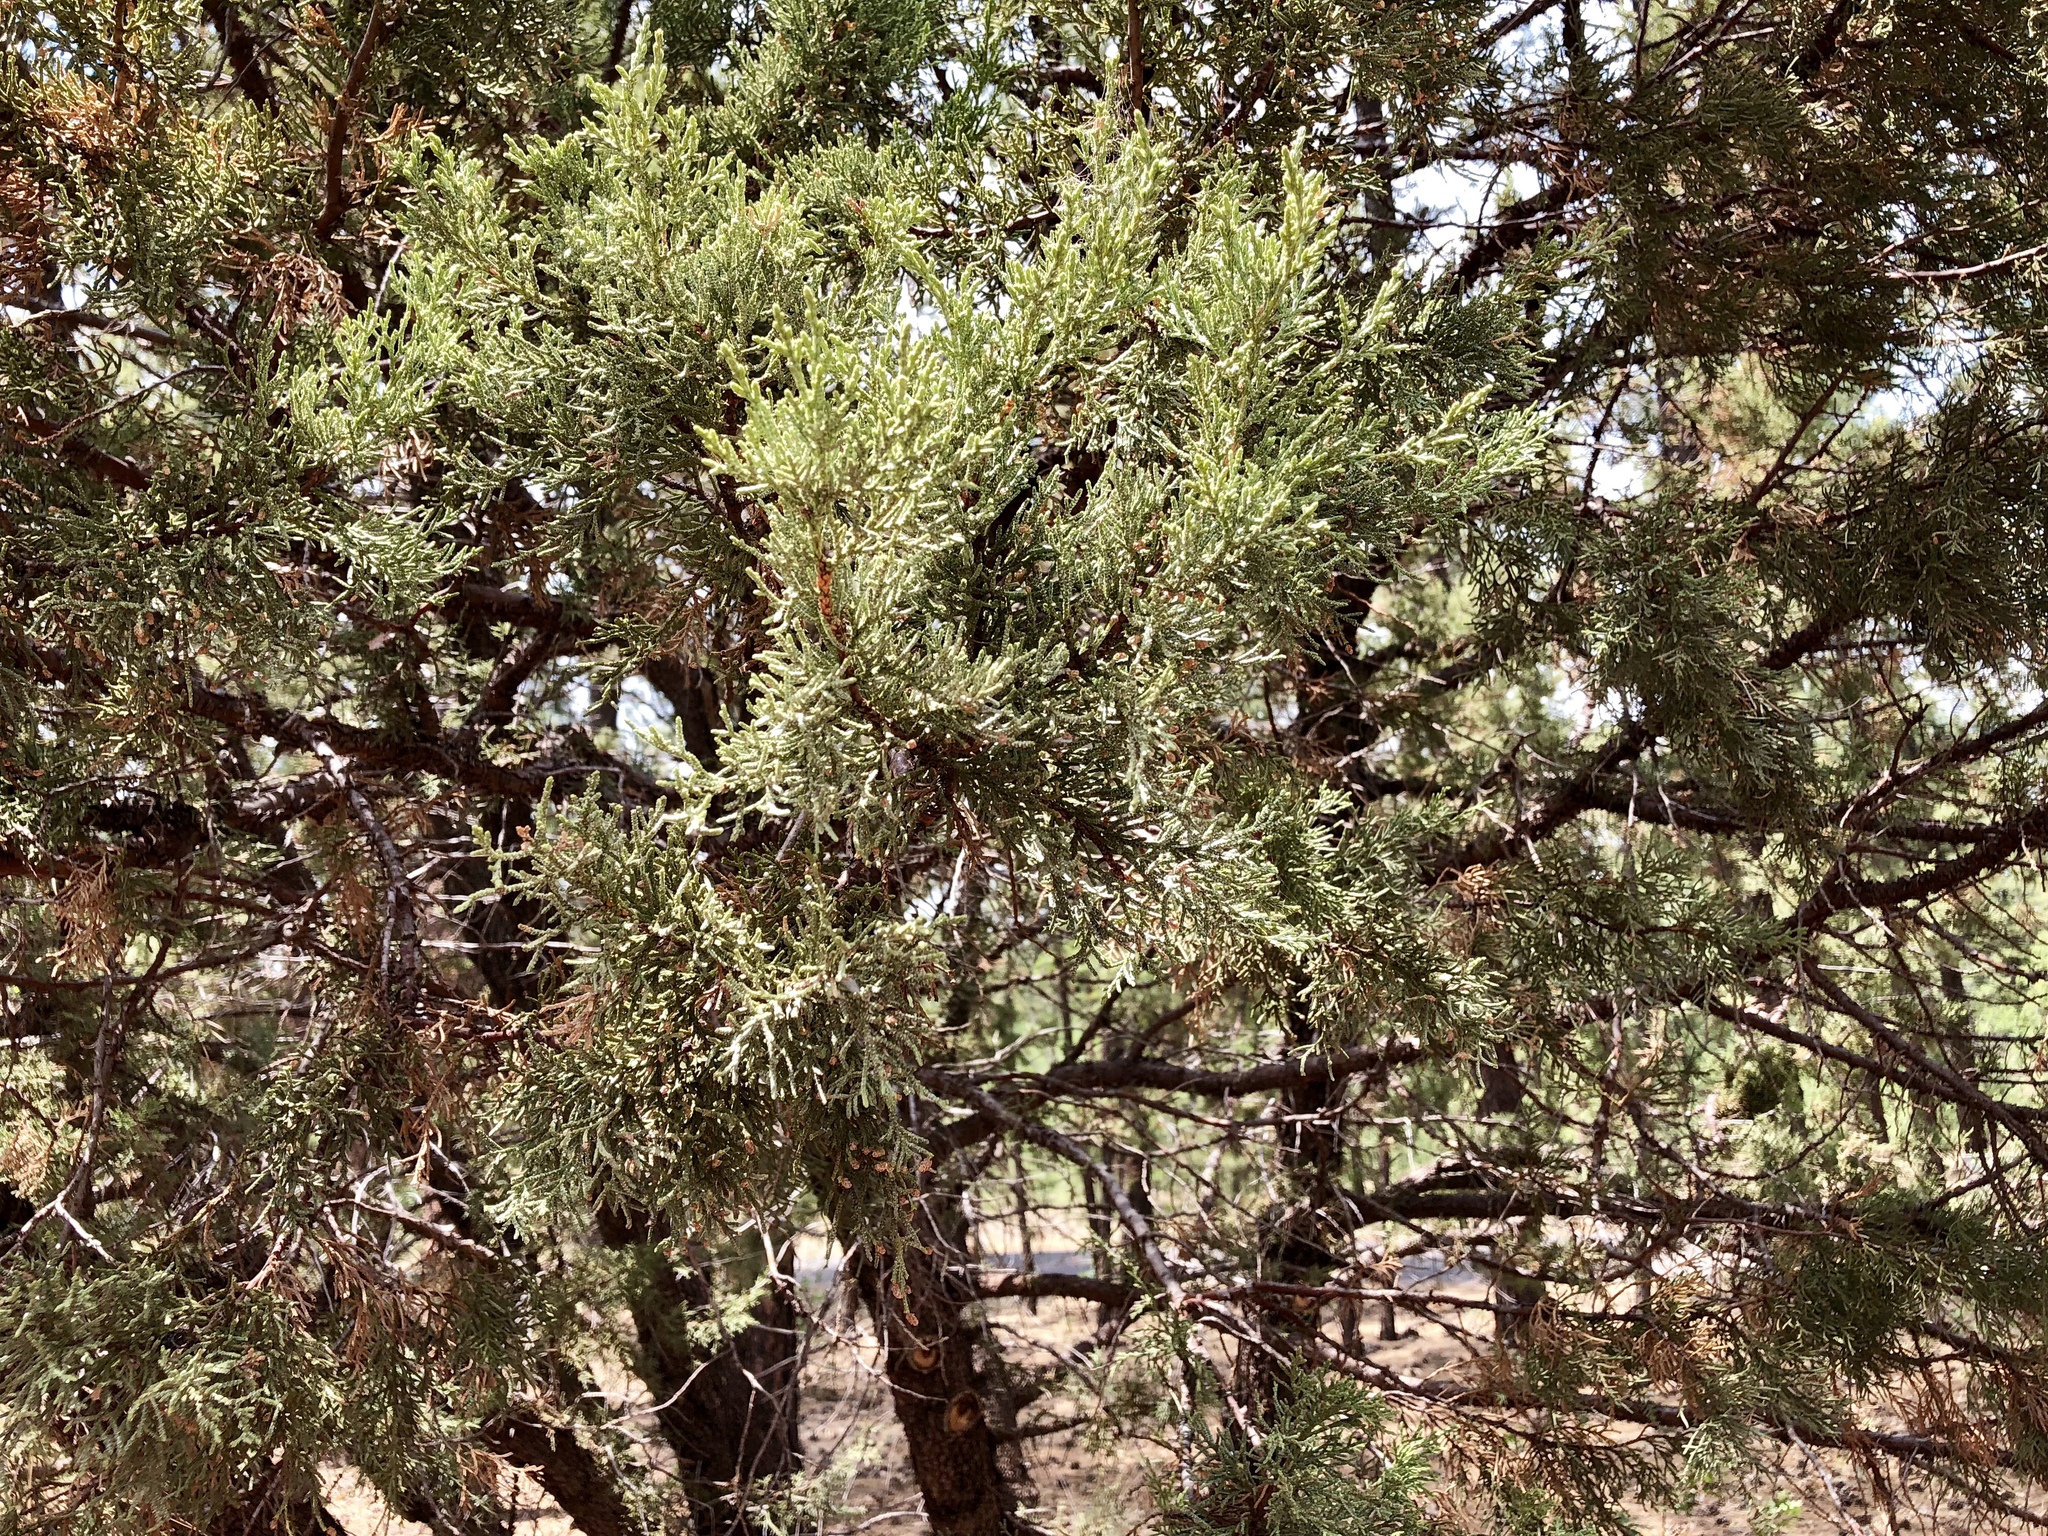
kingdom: Plantae
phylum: Tracheophyta
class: Pinopsida
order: Pinales
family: Cupressaceae
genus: Juniperus
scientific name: Juniperus deppeana
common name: Alligator juniper
